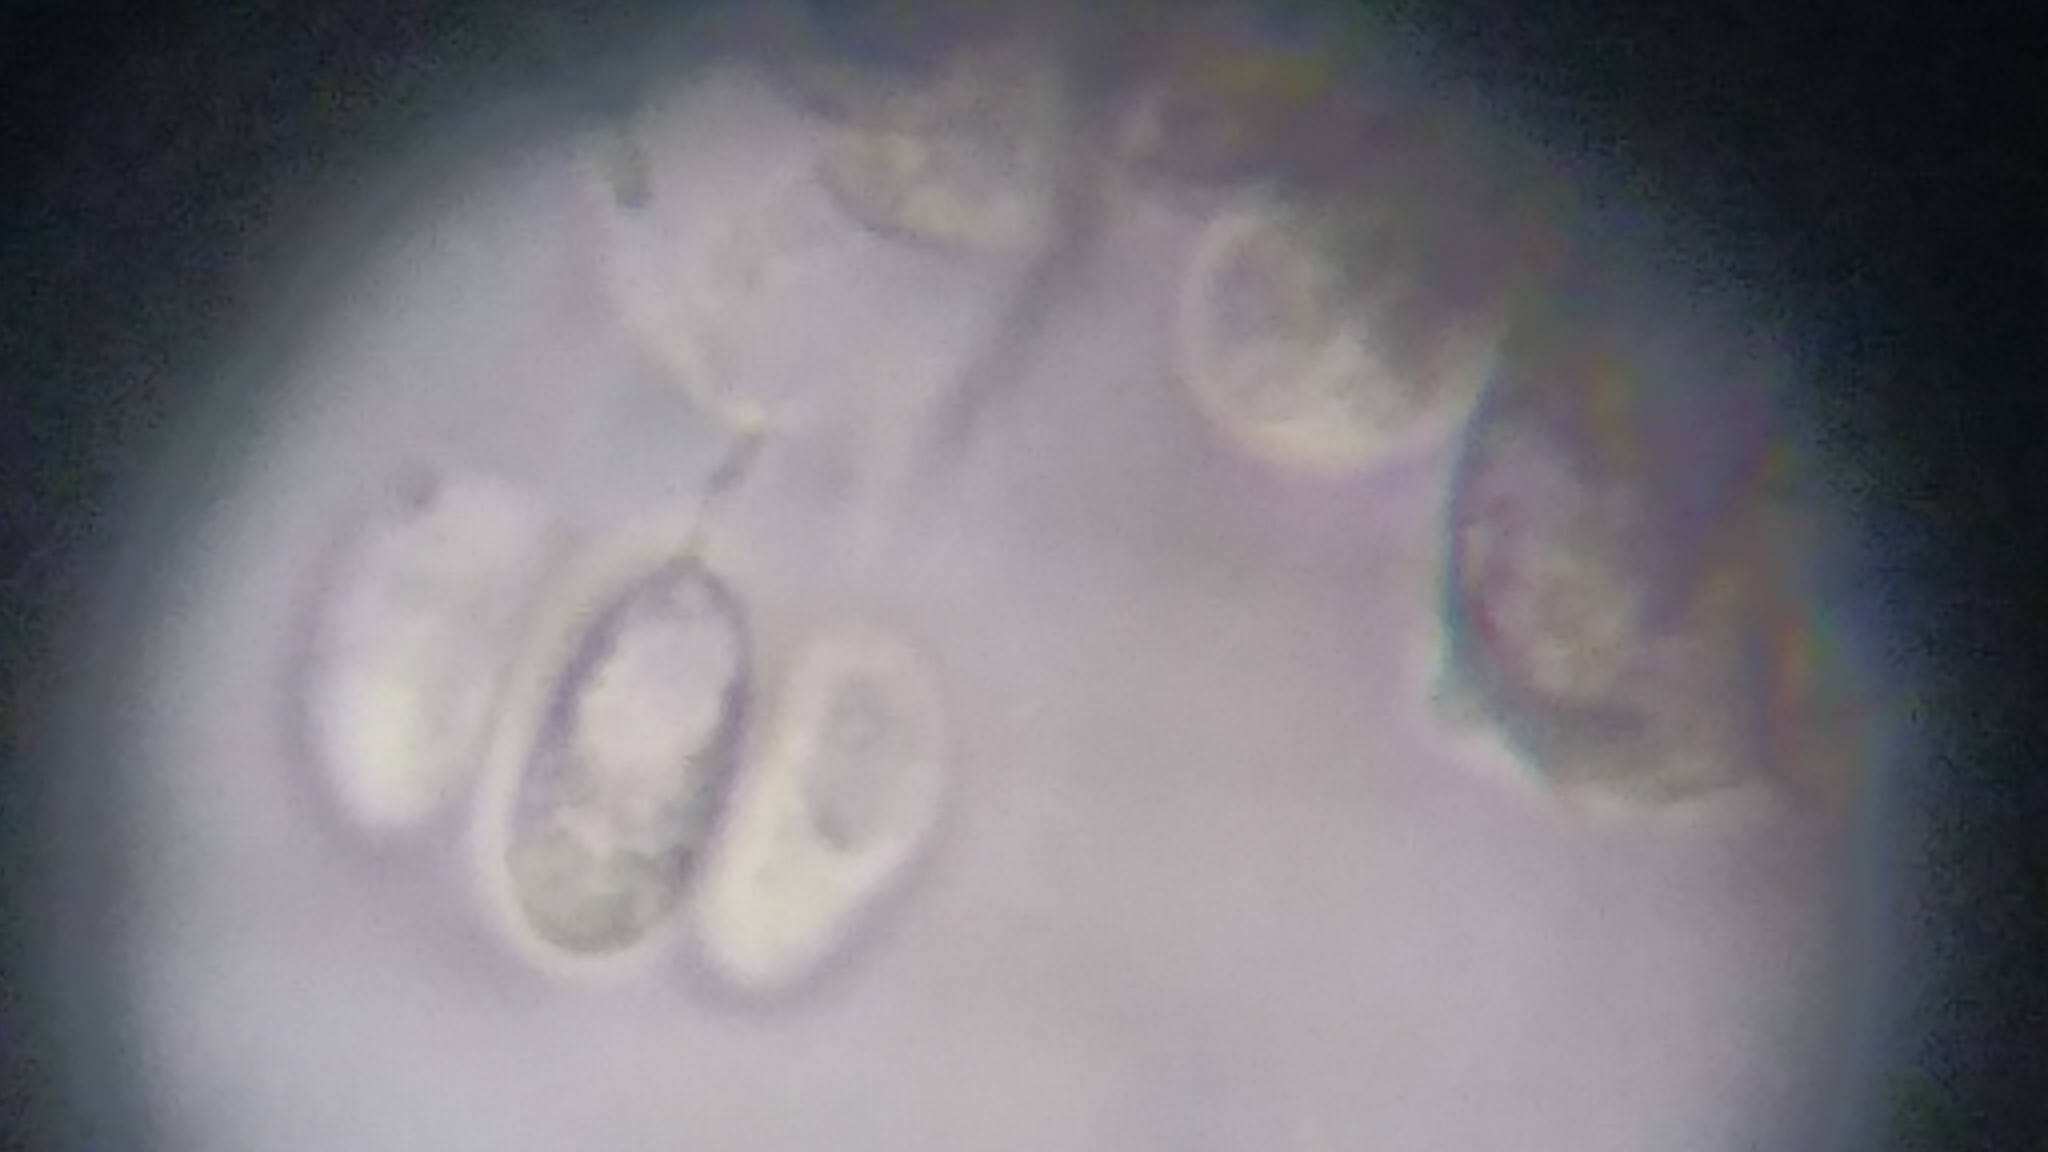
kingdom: Fungi
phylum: Basidiomycota
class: Agaricomycetes
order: Agaricales
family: Inocybaceae
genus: Inosperma
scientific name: Inosperma neobrunnescens
